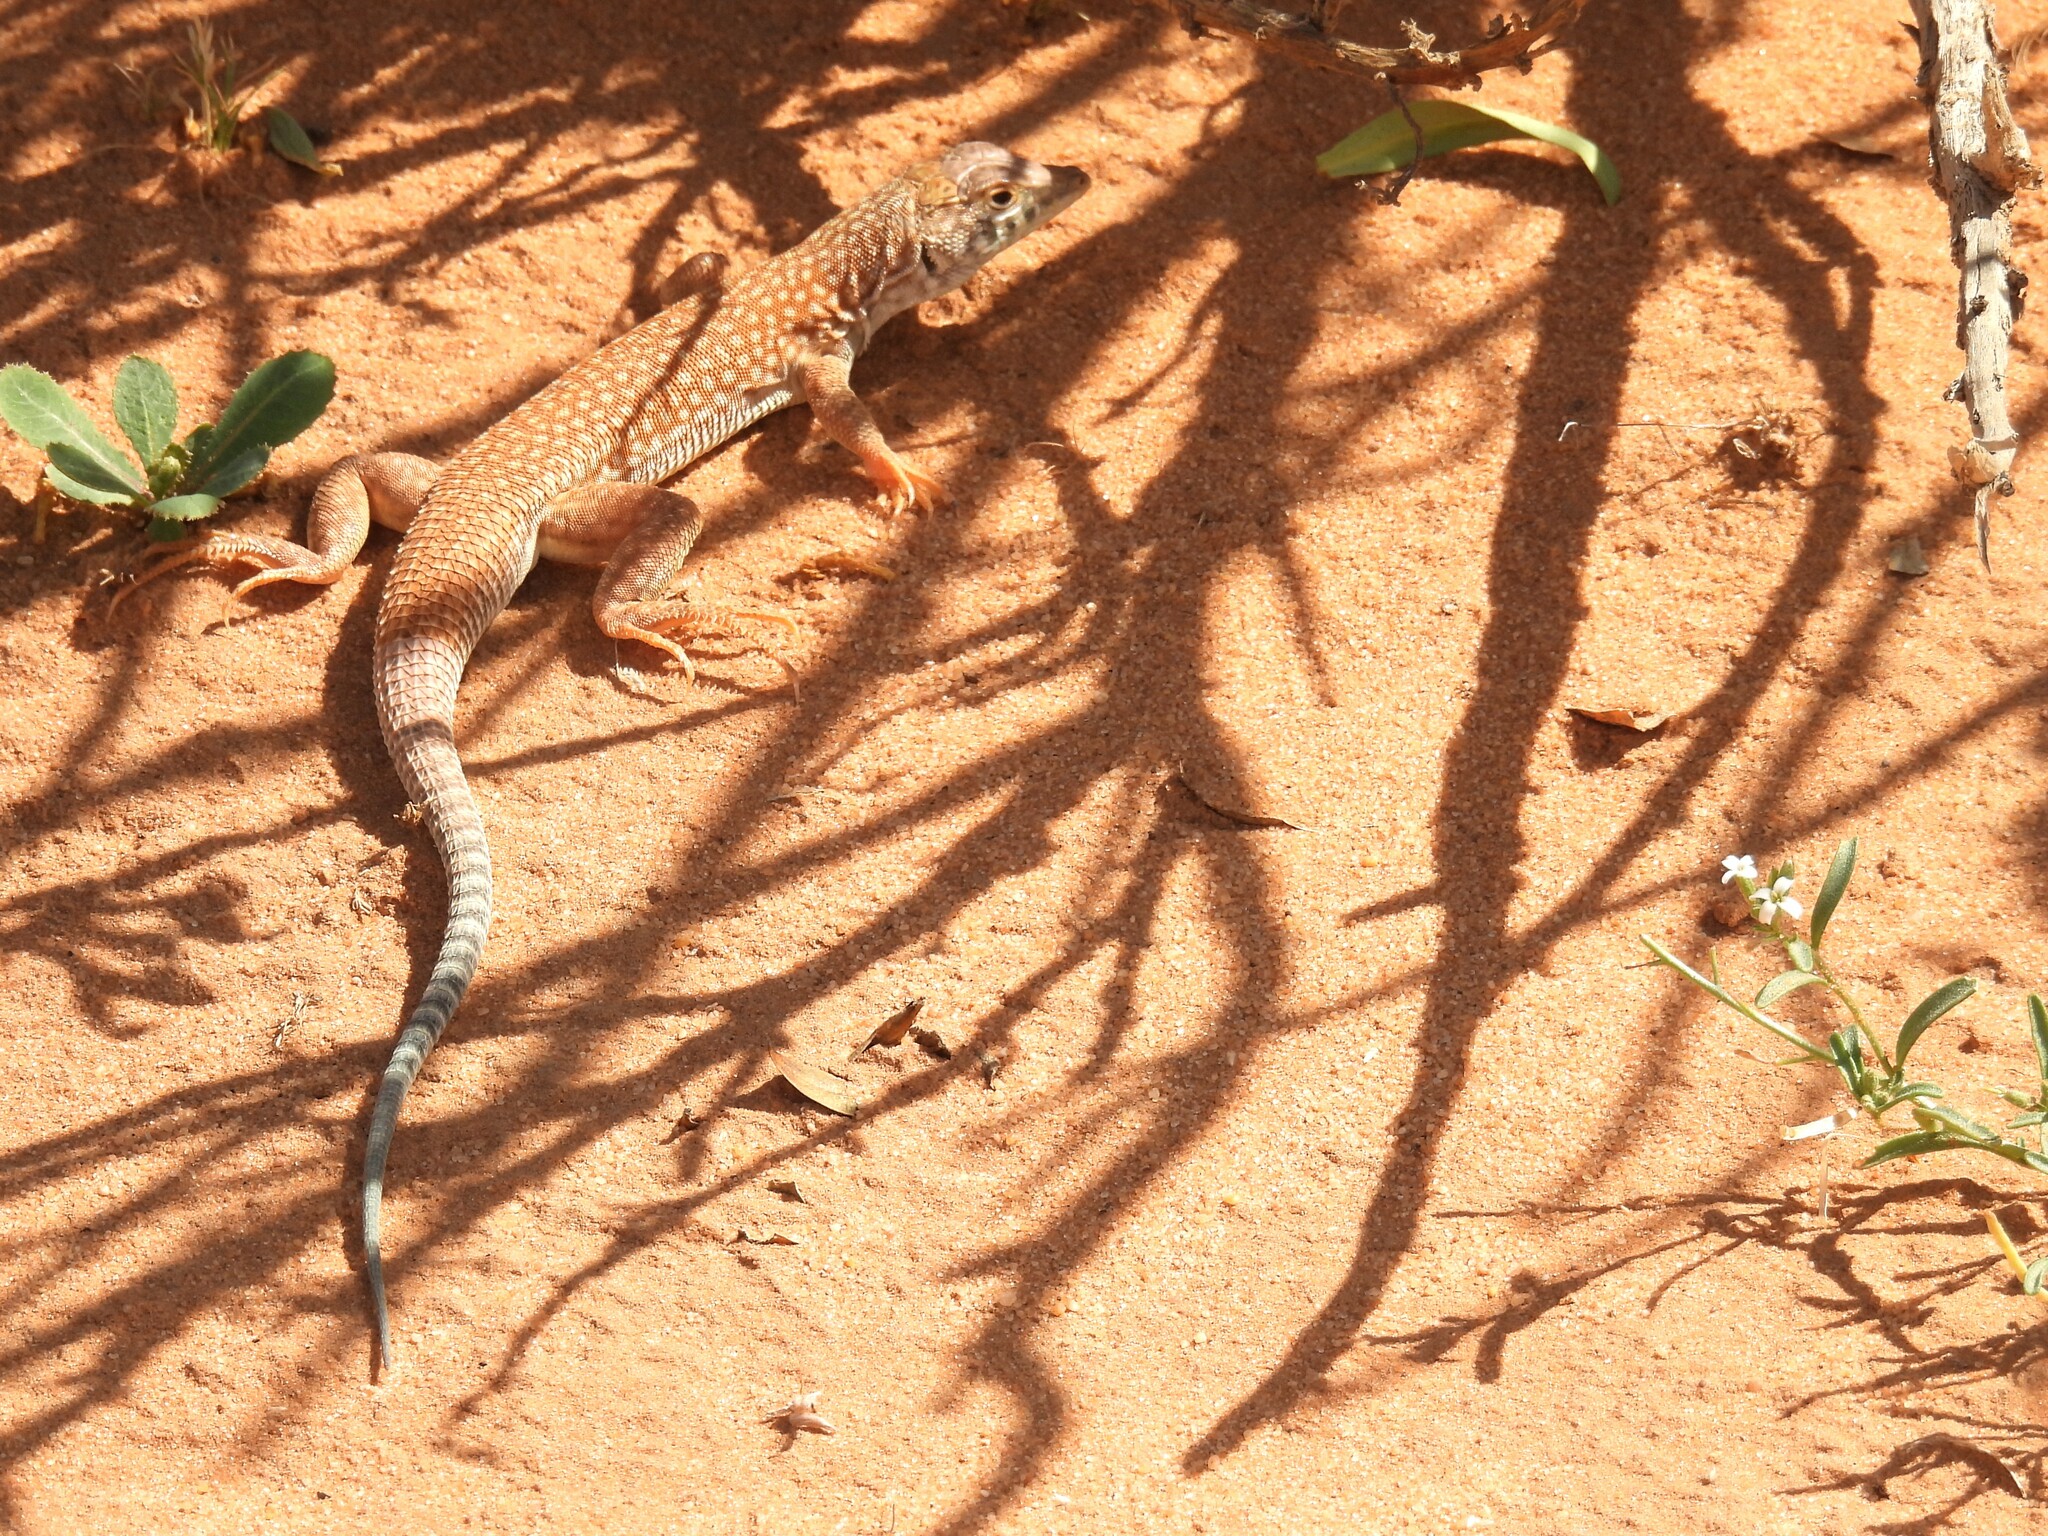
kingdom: Animalia
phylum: Chordata
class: Squamata
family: Lacertidae
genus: Acanthodactylus
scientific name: Acanthodactylus schmidti
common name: Schmidt's fringe-toed lizard
